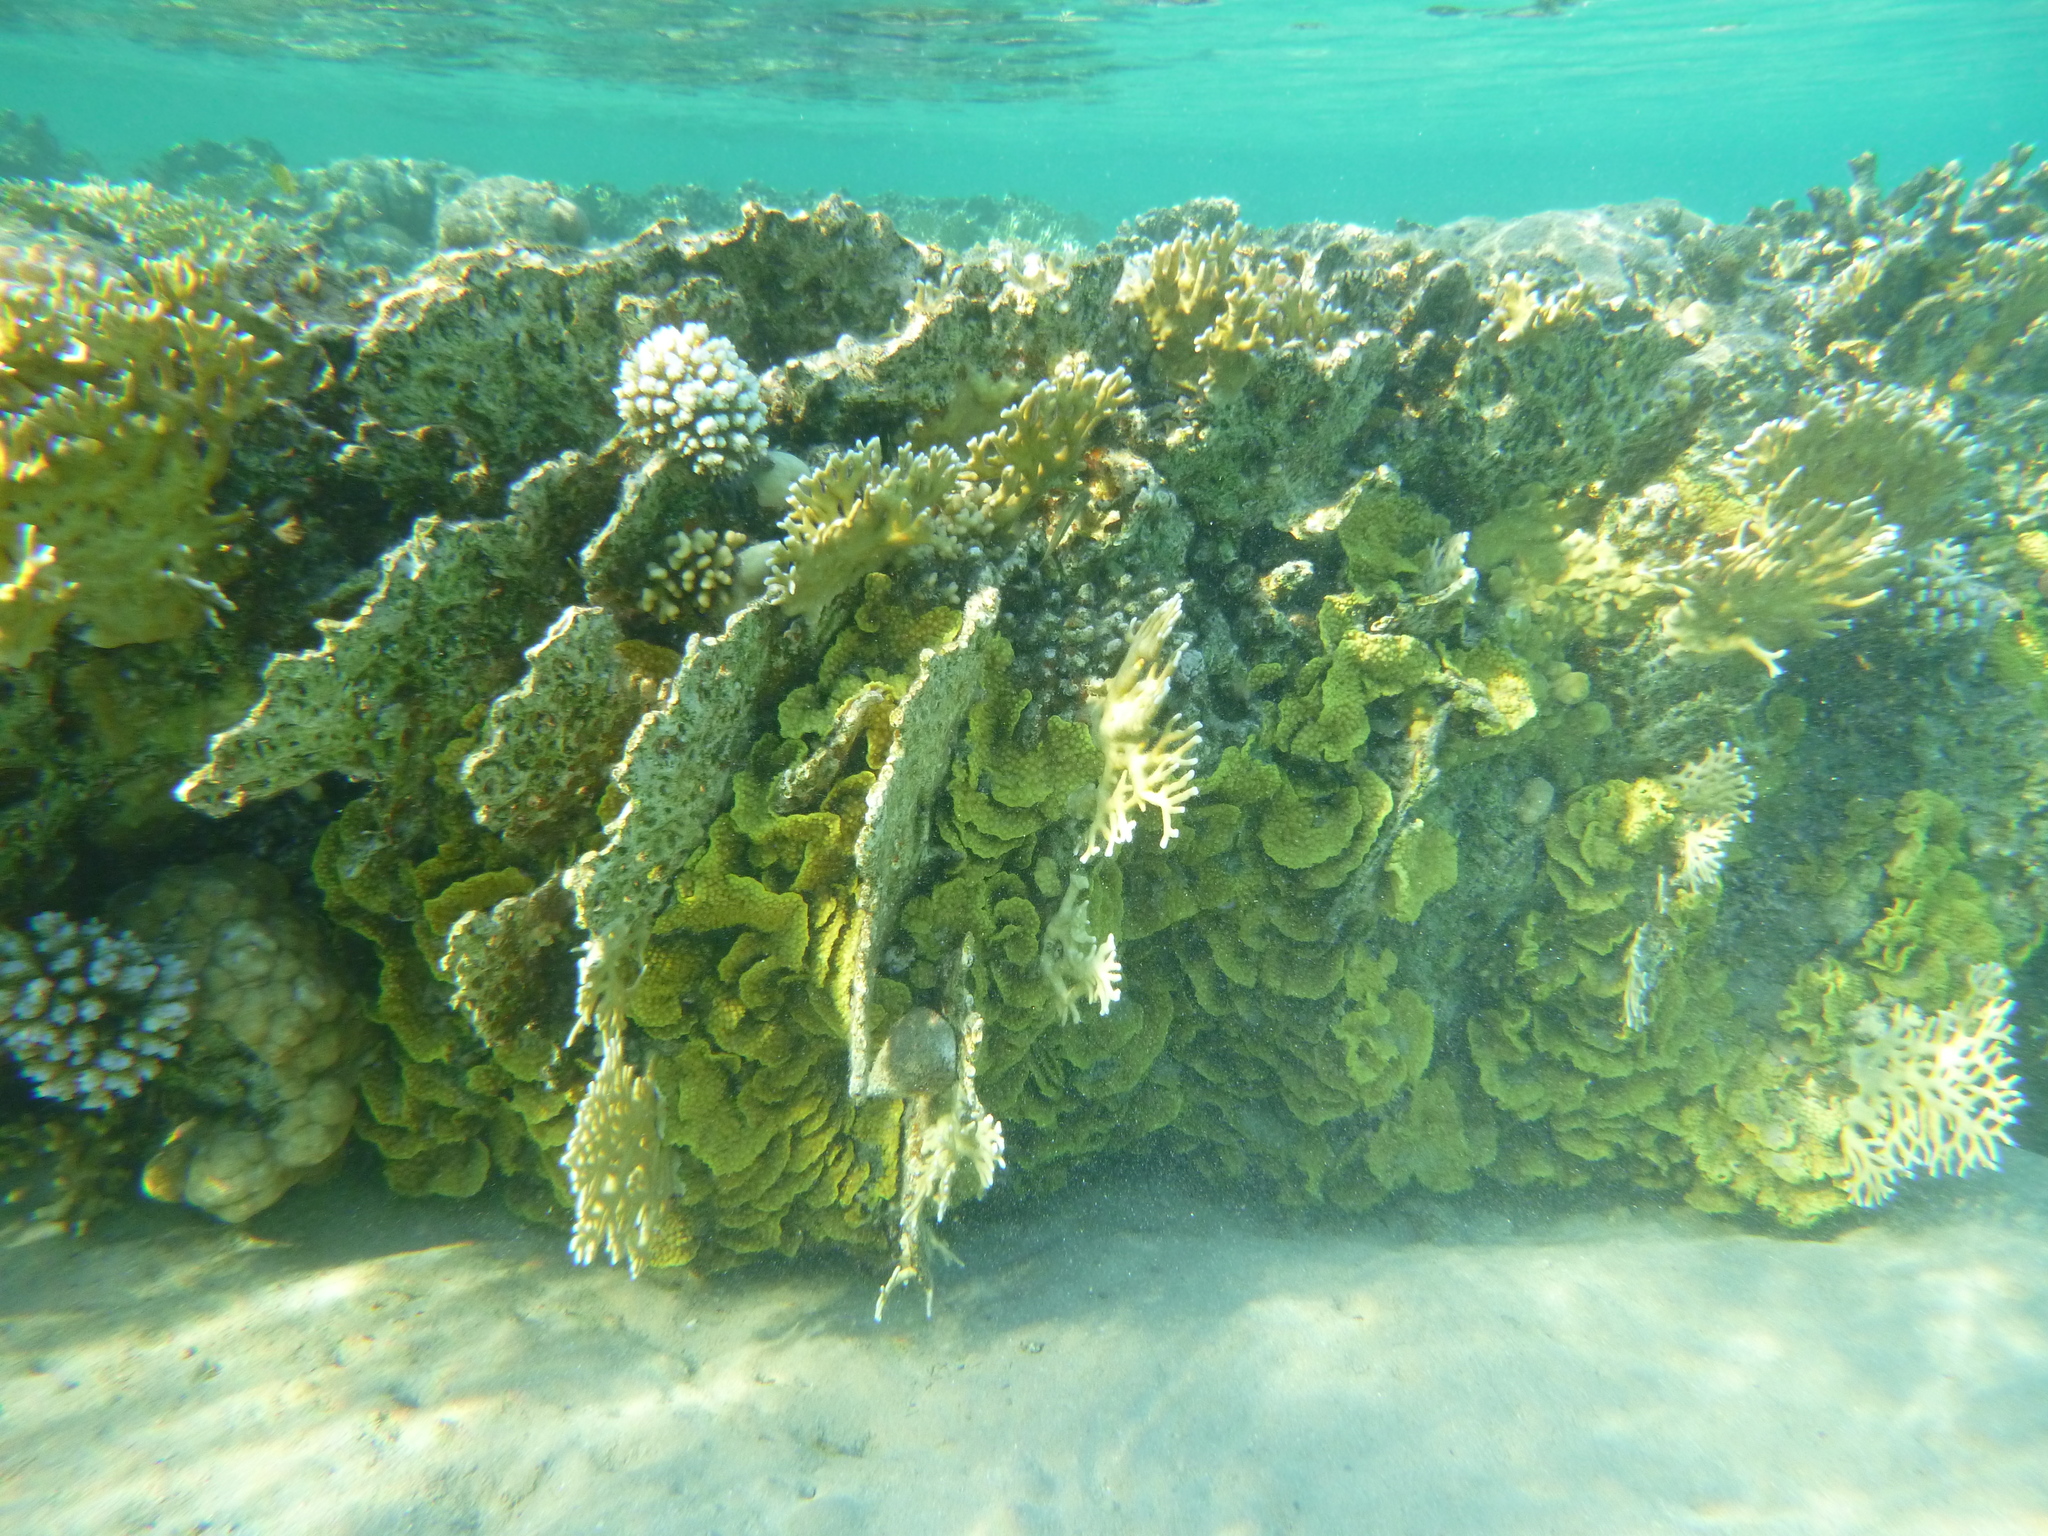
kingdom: Animalia
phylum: Cnidaria
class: Hydrozoa
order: Anthoathecata
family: Milleporidae
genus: Millepora
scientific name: Millepora dichotoma
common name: Ramified fire coral
